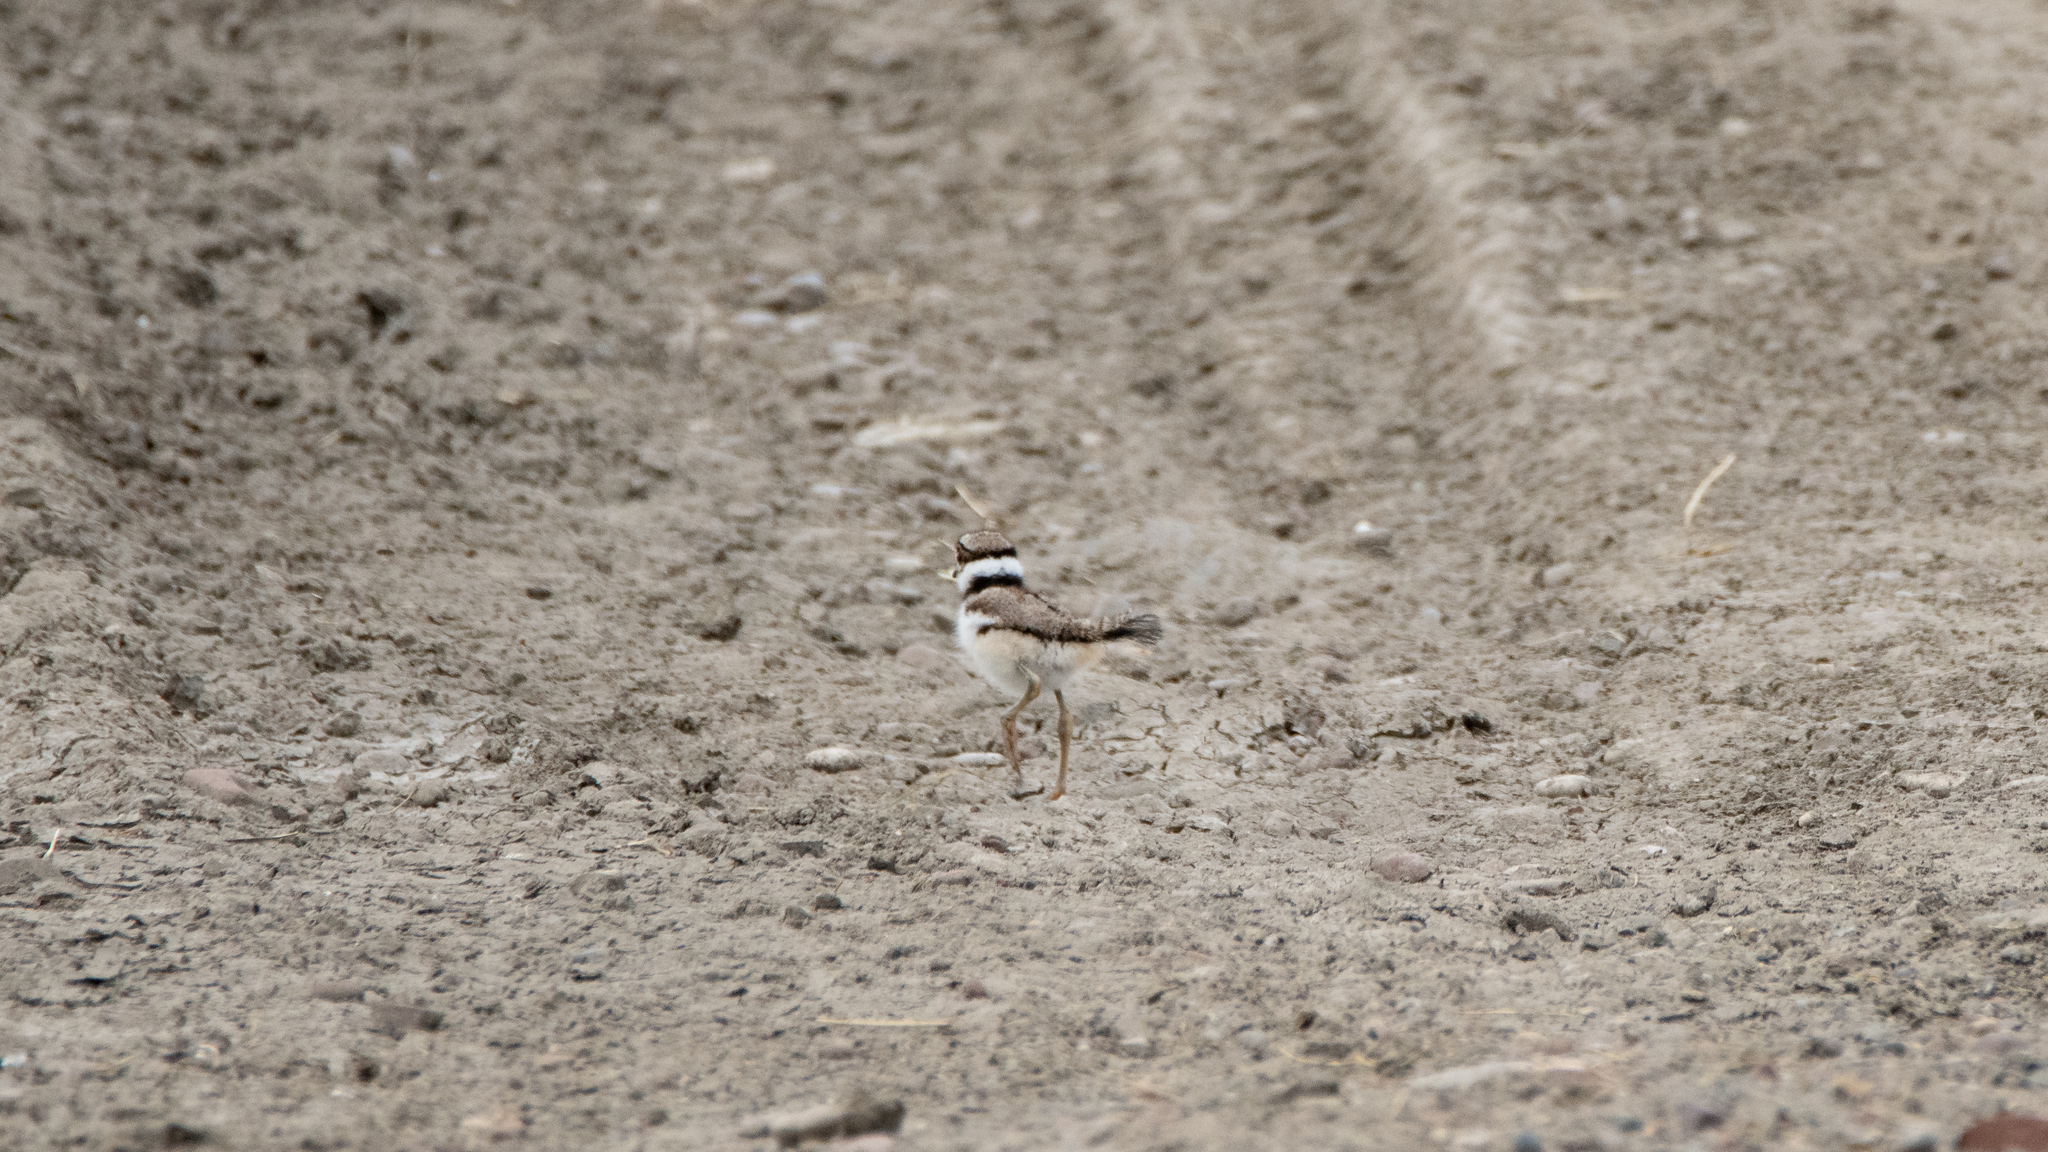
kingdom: Animalia
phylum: Chordata
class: Aves
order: Charadriiformes
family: Charadriidae
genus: Charadrius
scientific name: Charadrius vociferus
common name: Killdeer
